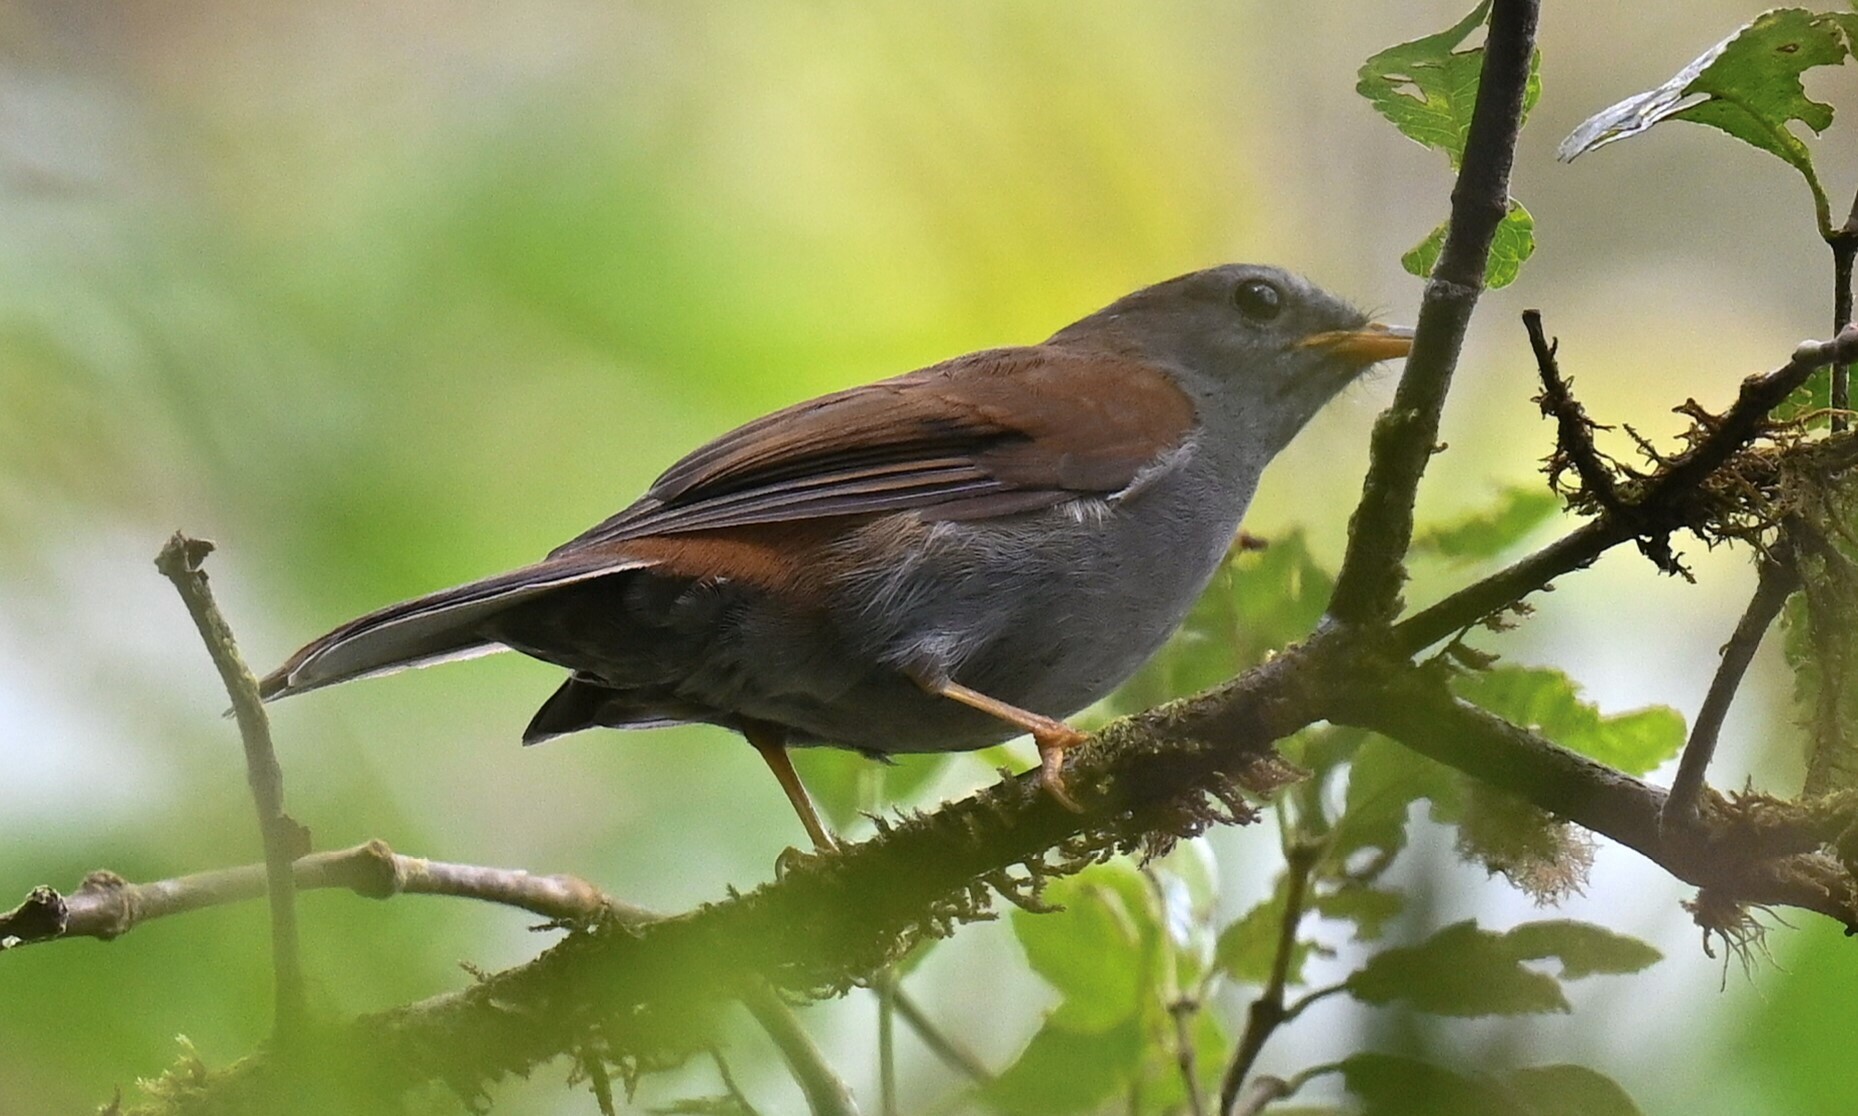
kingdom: Animalia
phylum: Chordata
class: Aves
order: Passeriformes
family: Turdidae
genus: Myadestes
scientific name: Myadestes ralloides
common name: Andean solitaire
